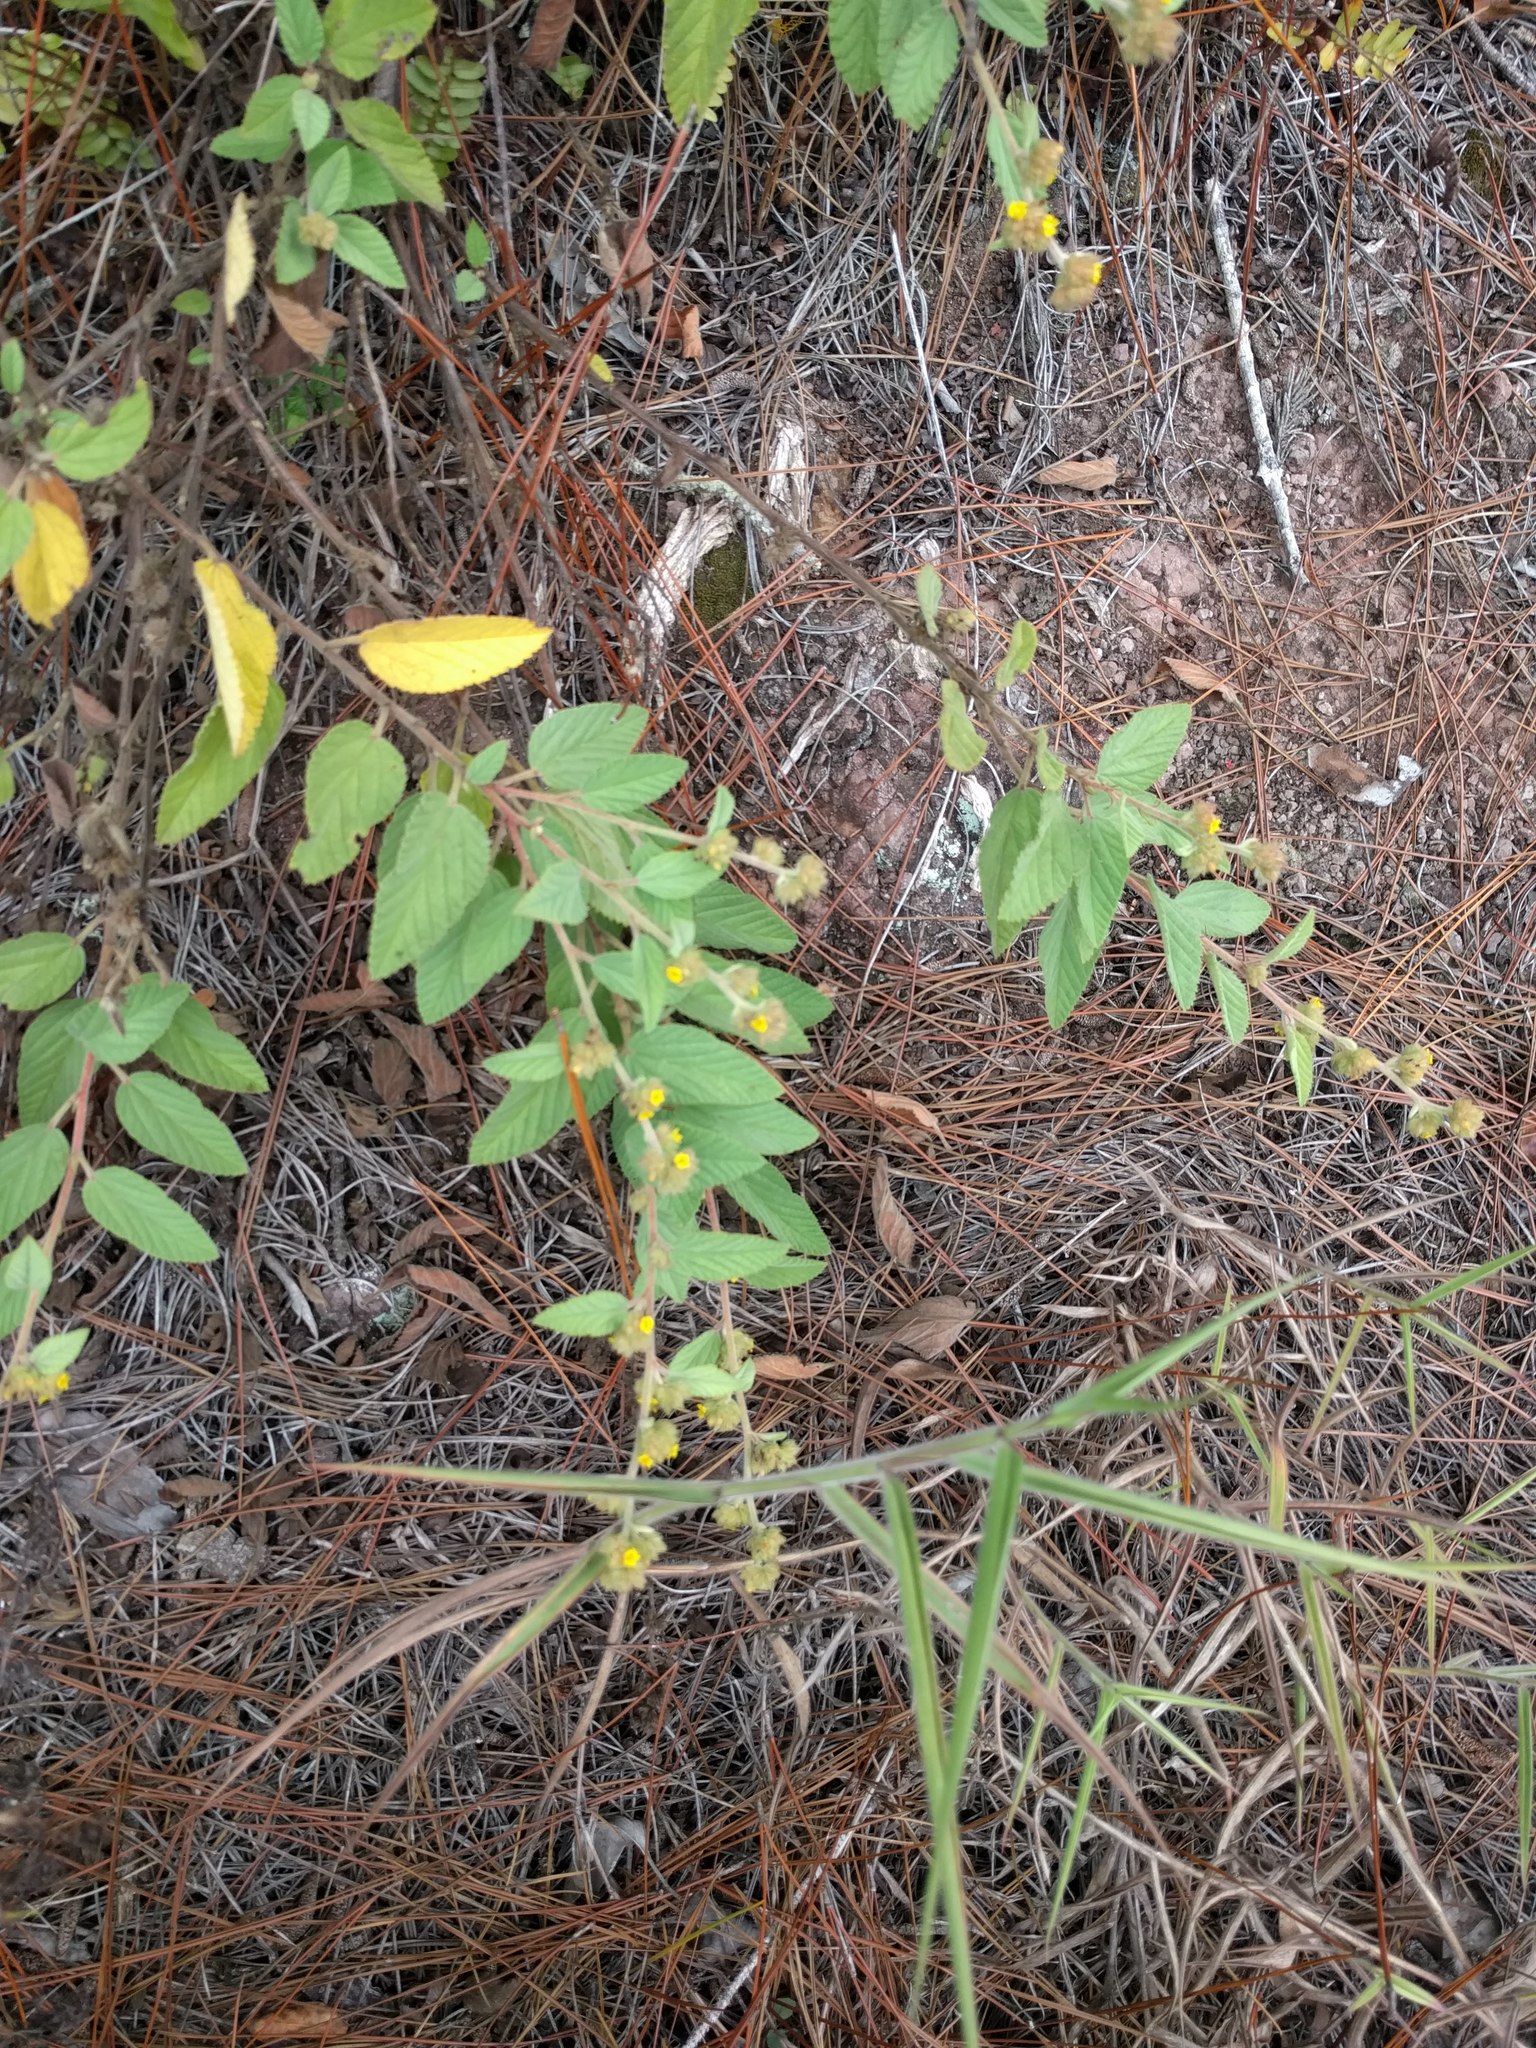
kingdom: Plantae
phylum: Tracheophyta
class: Magnoliopsida
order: Malvales
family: Malvaceae
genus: Waltheria
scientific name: Waltheria indica
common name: Leather-coat
